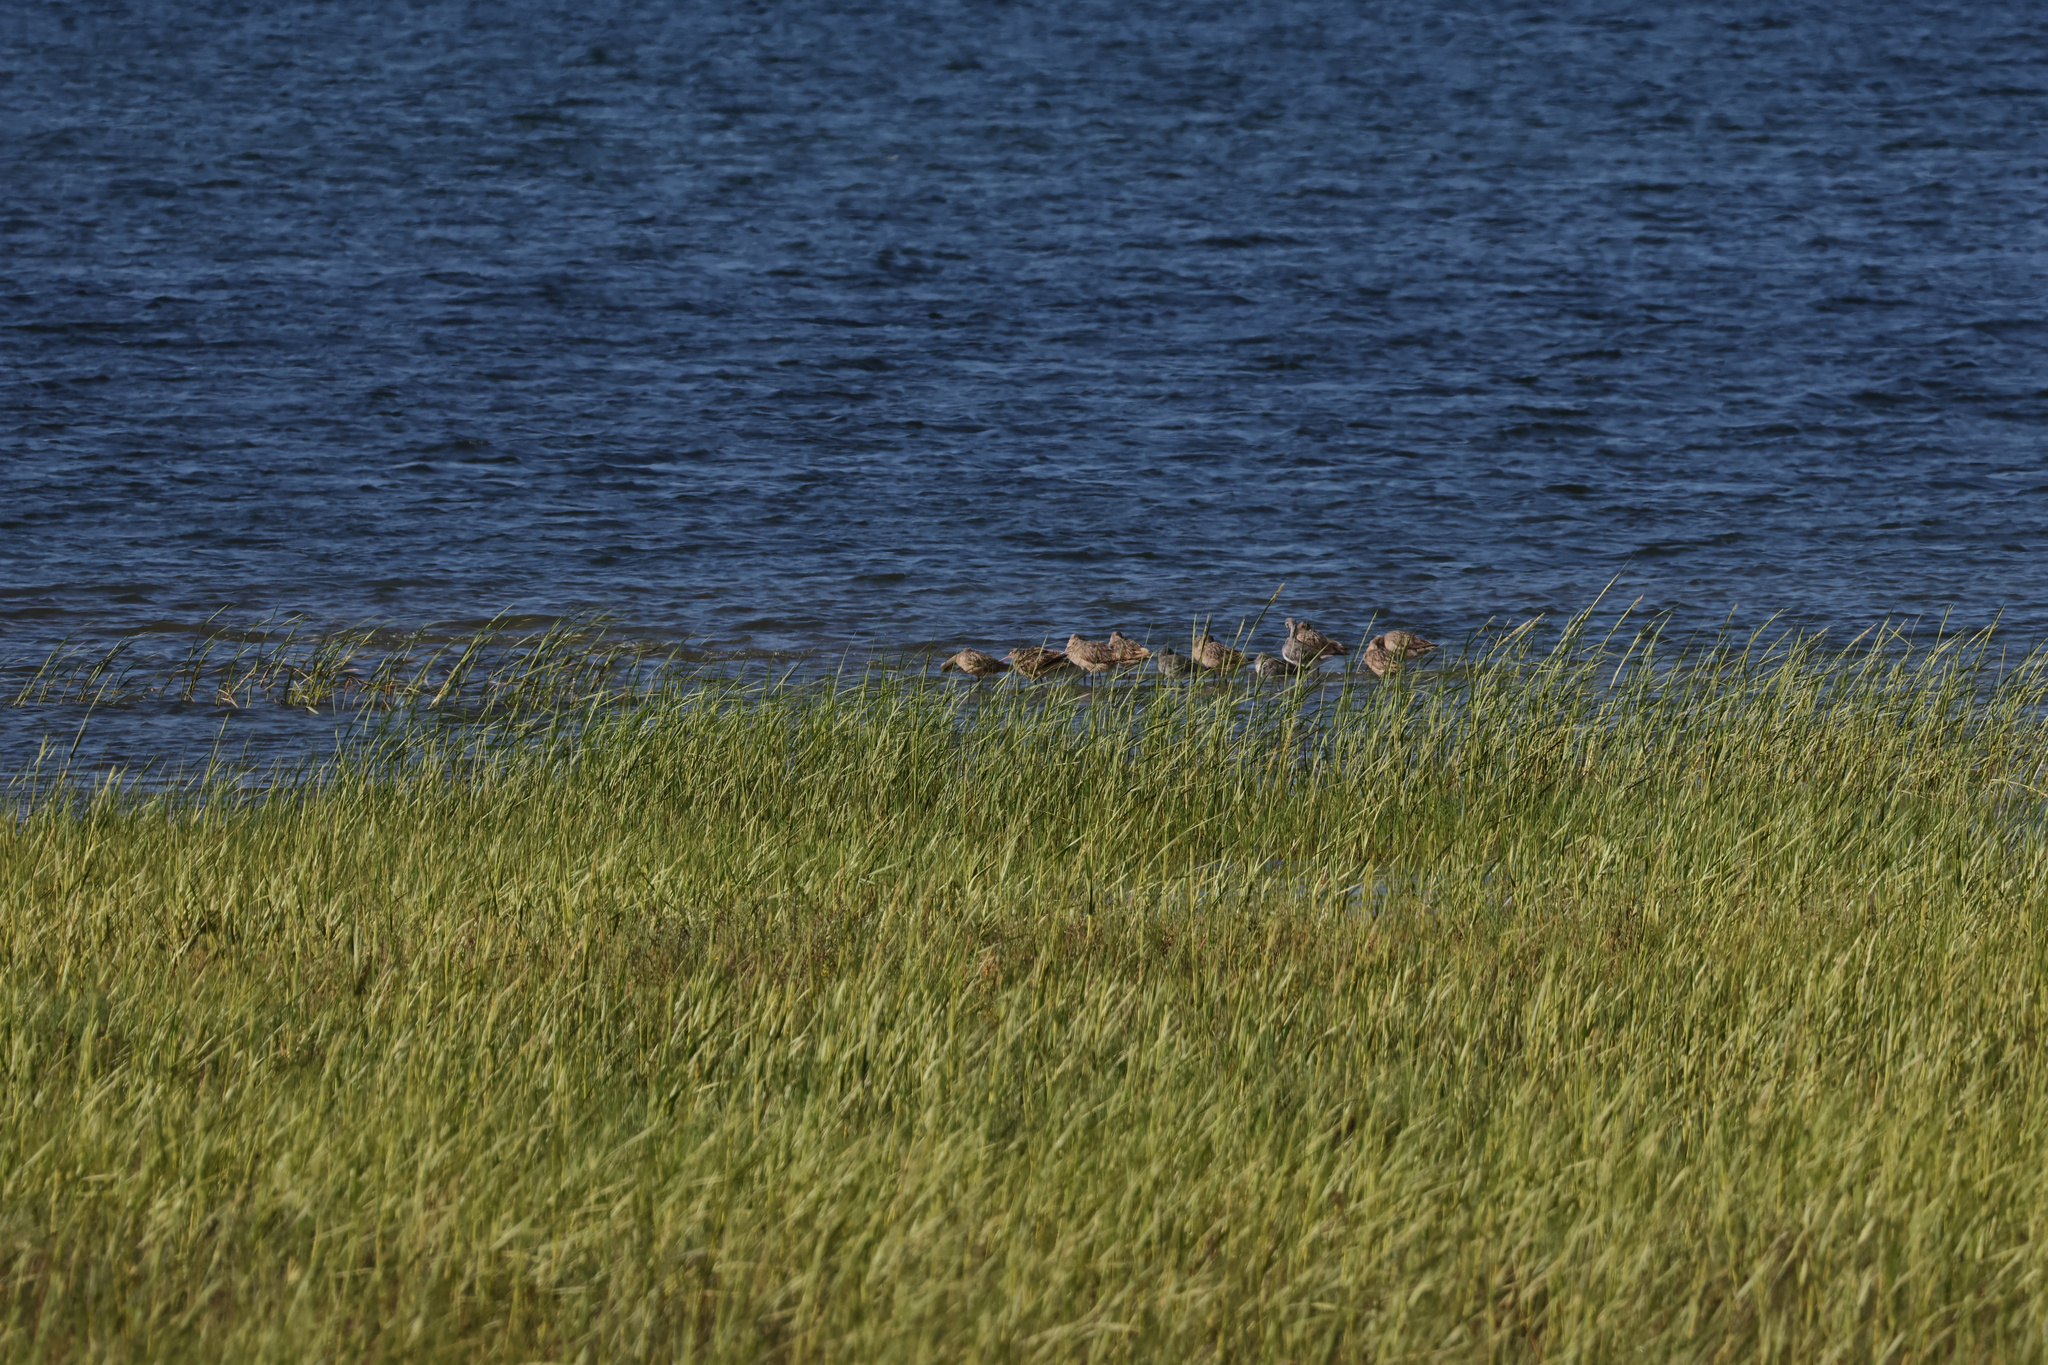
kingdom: Animalia
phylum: Chordata
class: Aves
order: Charadriiformes
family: Scolopacidae
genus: Limosa
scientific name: Limosa fedoa
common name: Marbled godwit
